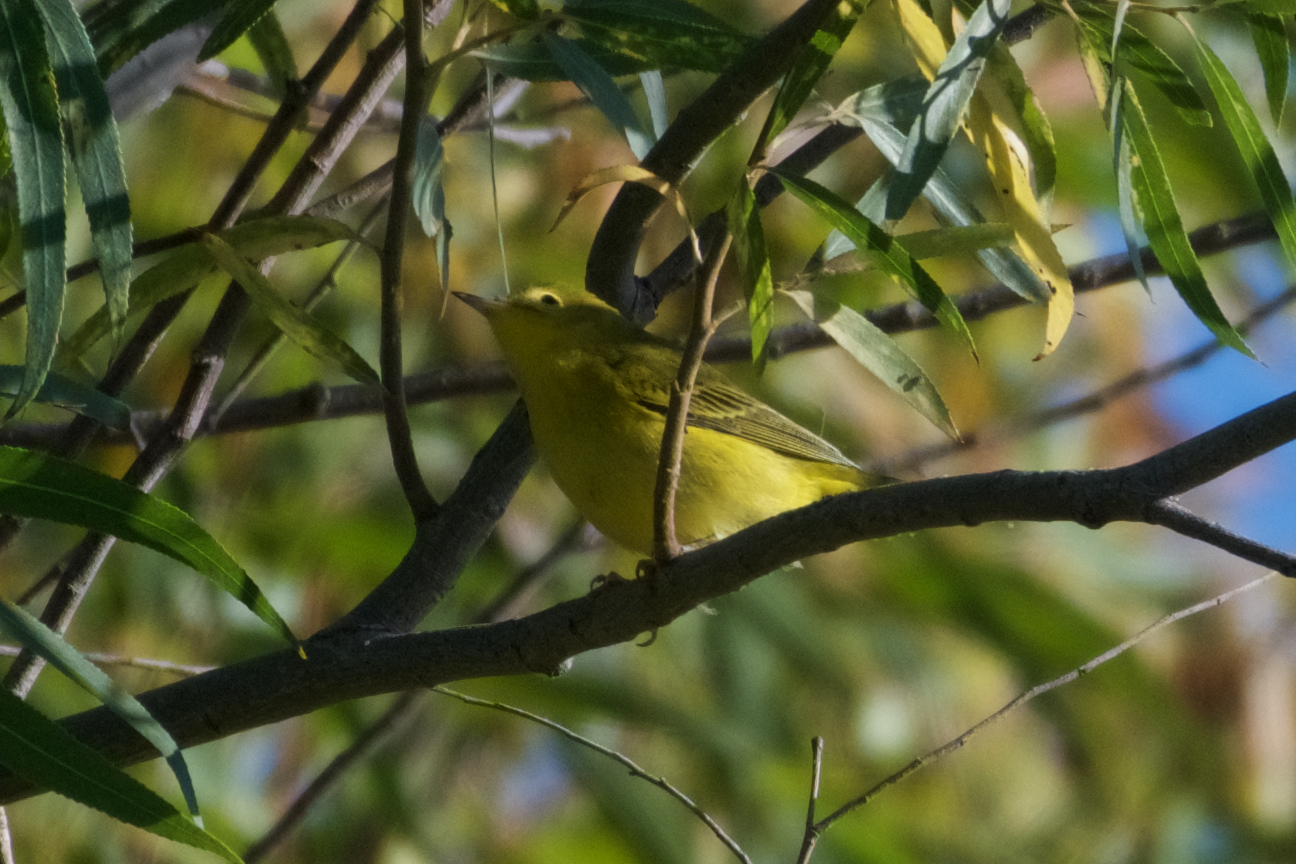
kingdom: Animalia
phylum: Chordata
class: Aves
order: Passeriformes
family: Parulidae
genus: Setophaga
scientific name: Setophaga petechia
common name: Yellow warbler
